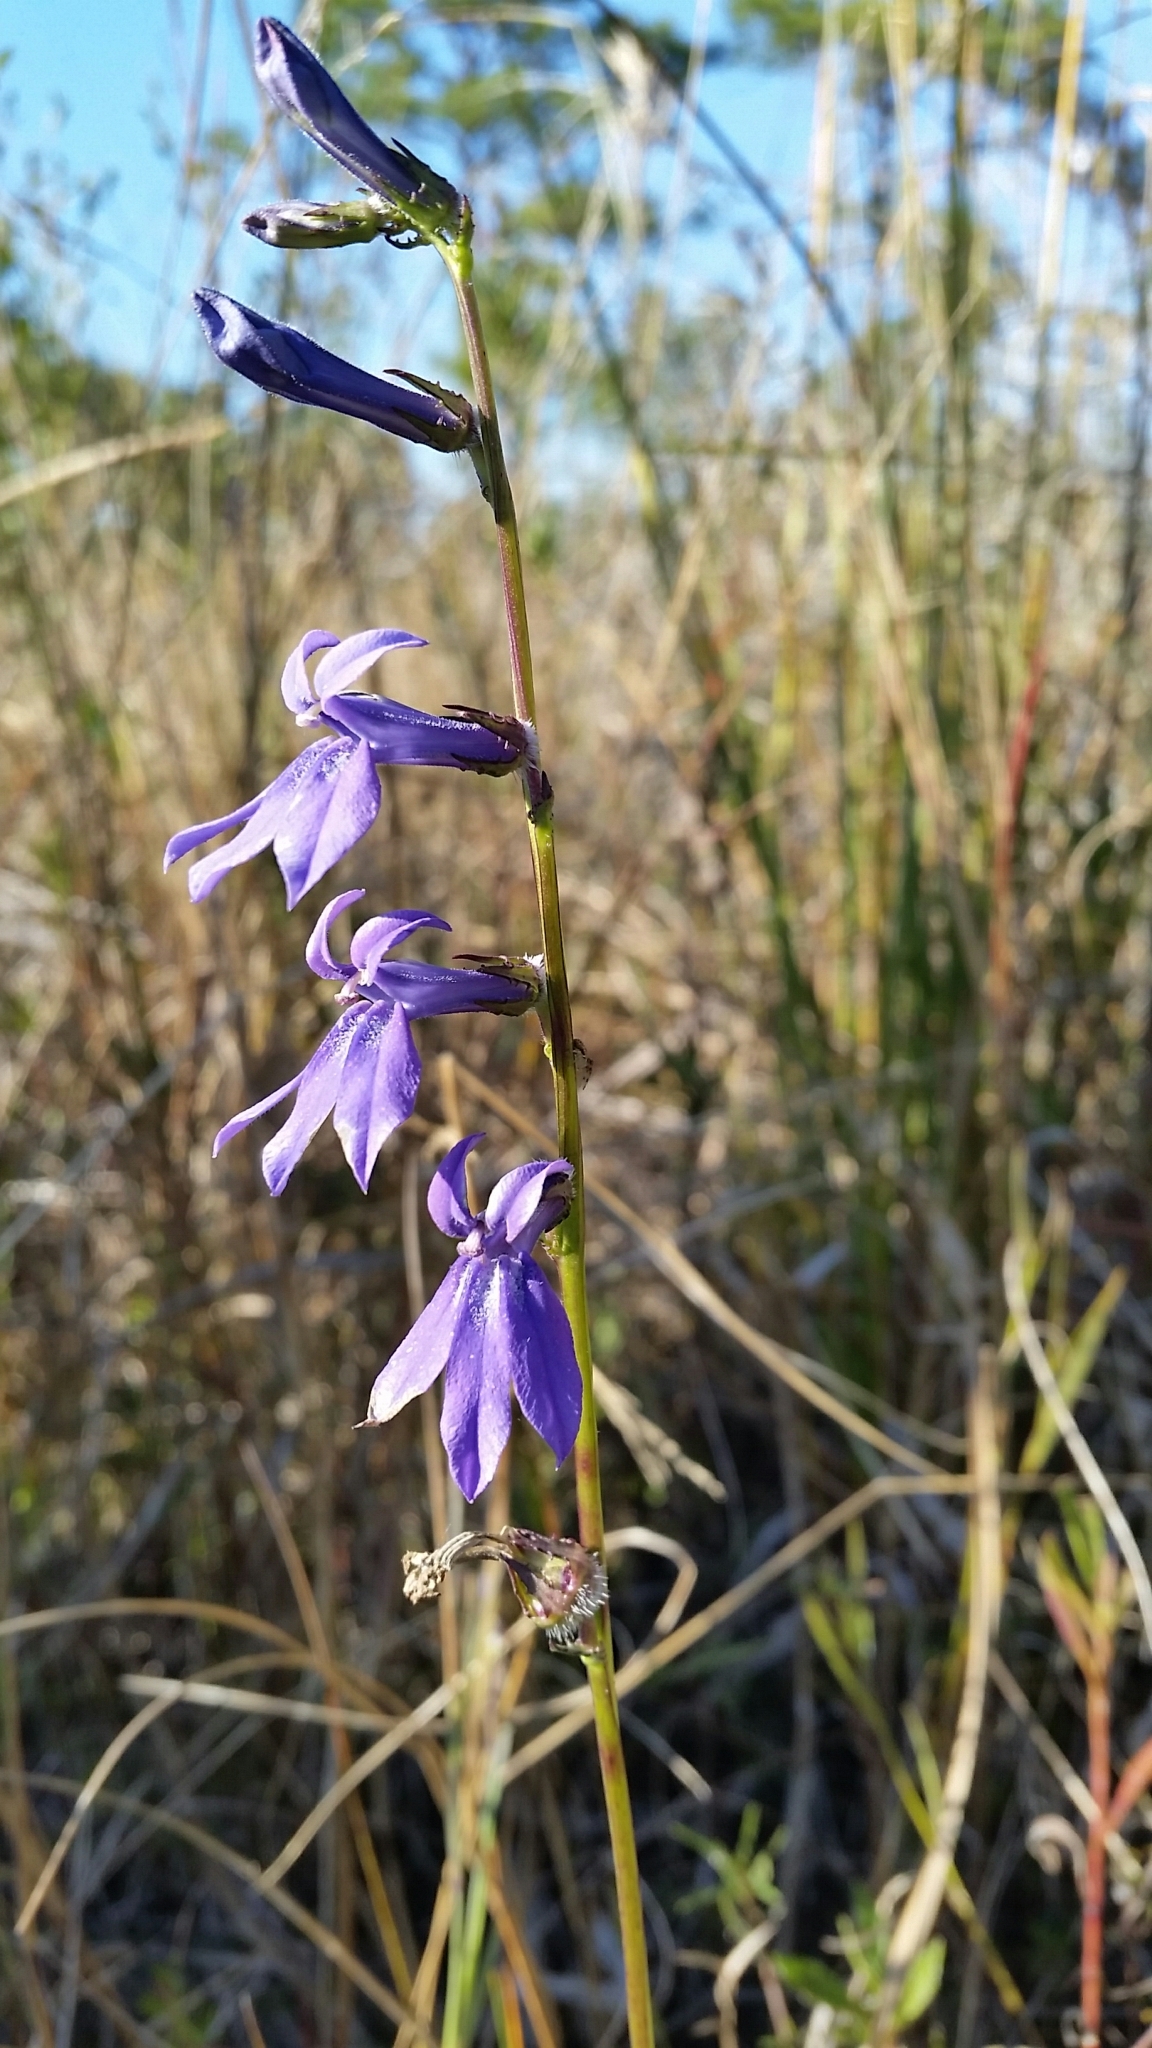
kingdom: Plantae
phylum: Tracheophyta
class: Magnoliopsida
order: Asterales
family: Campanulaceae
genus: Lobelia
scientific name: Lobelia glandulosa
